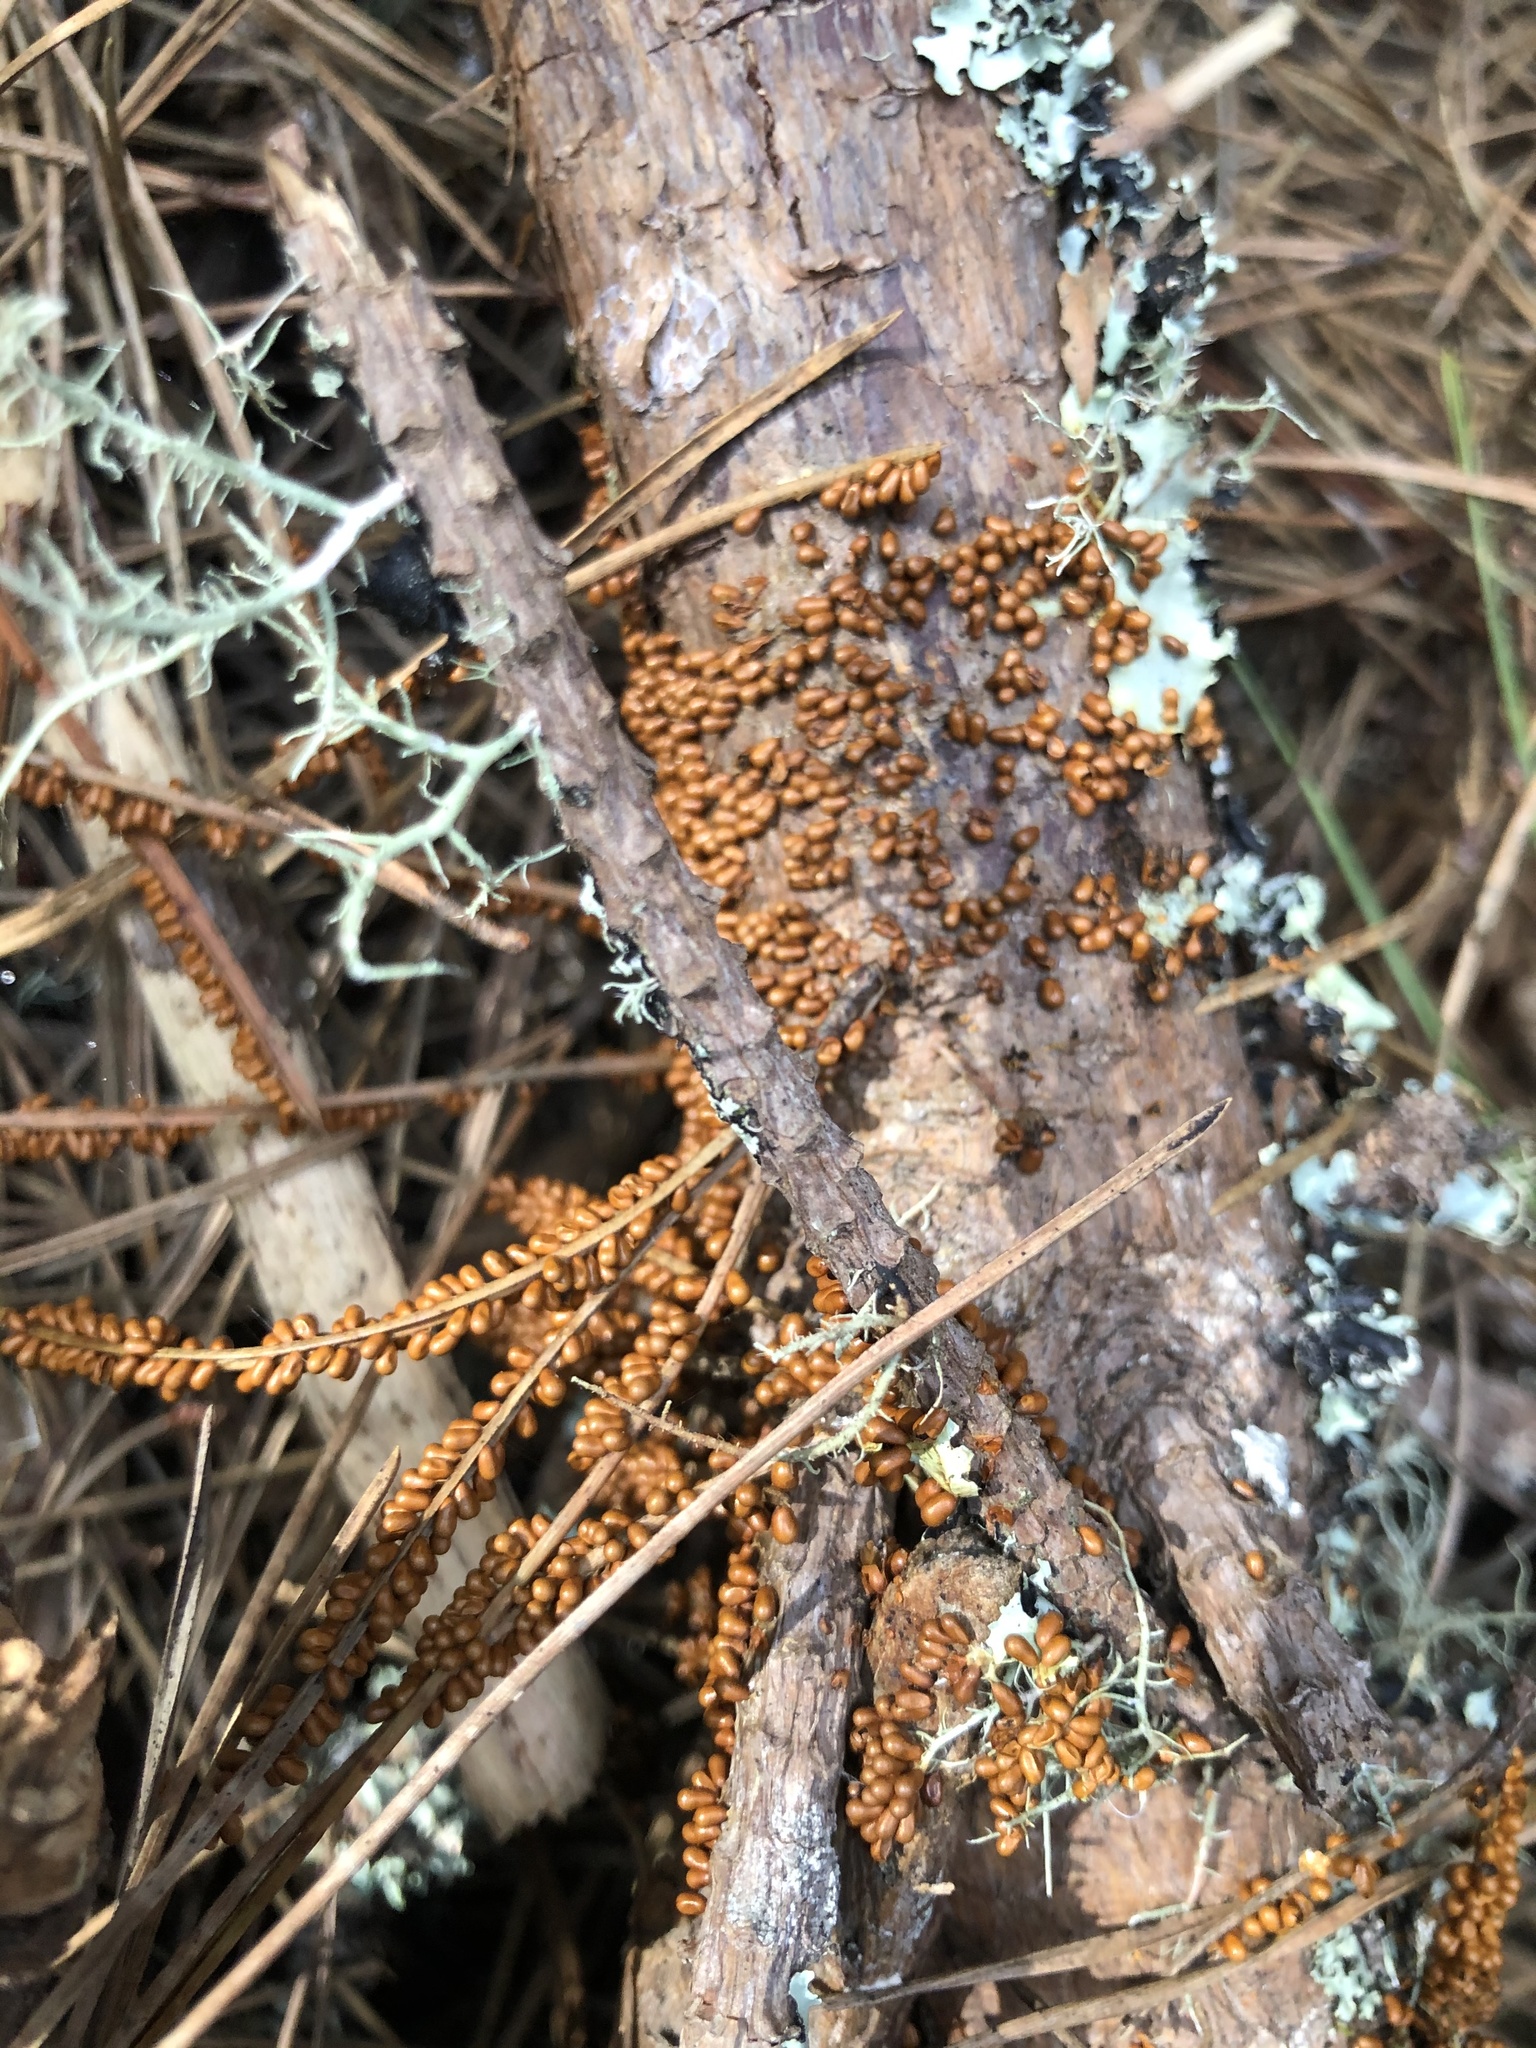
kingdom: Protozoa
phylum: Mycetozoa
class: Myxomycetes
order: Physarales
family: Physaraceae
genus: Leocarpus
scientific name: Leocarpus fragilis
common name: Insect-egg slime
